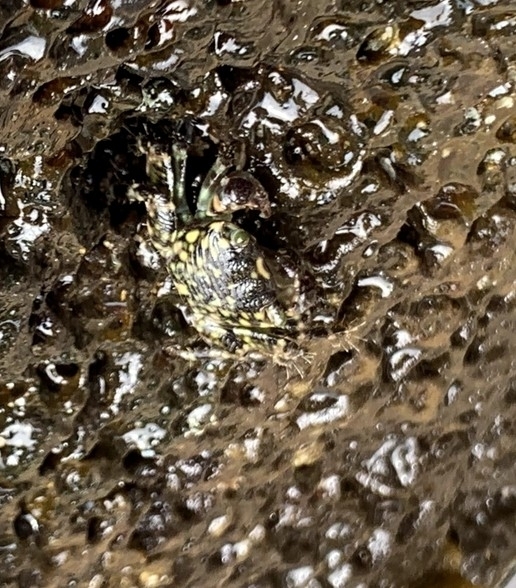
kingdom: Animalia
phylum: Arthropoda
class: Malacostraca
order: Decapoda
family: Grapsidae
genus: Pachygrapsus
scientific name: Pachygrapsus plicatus
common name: Pleated rock crab
